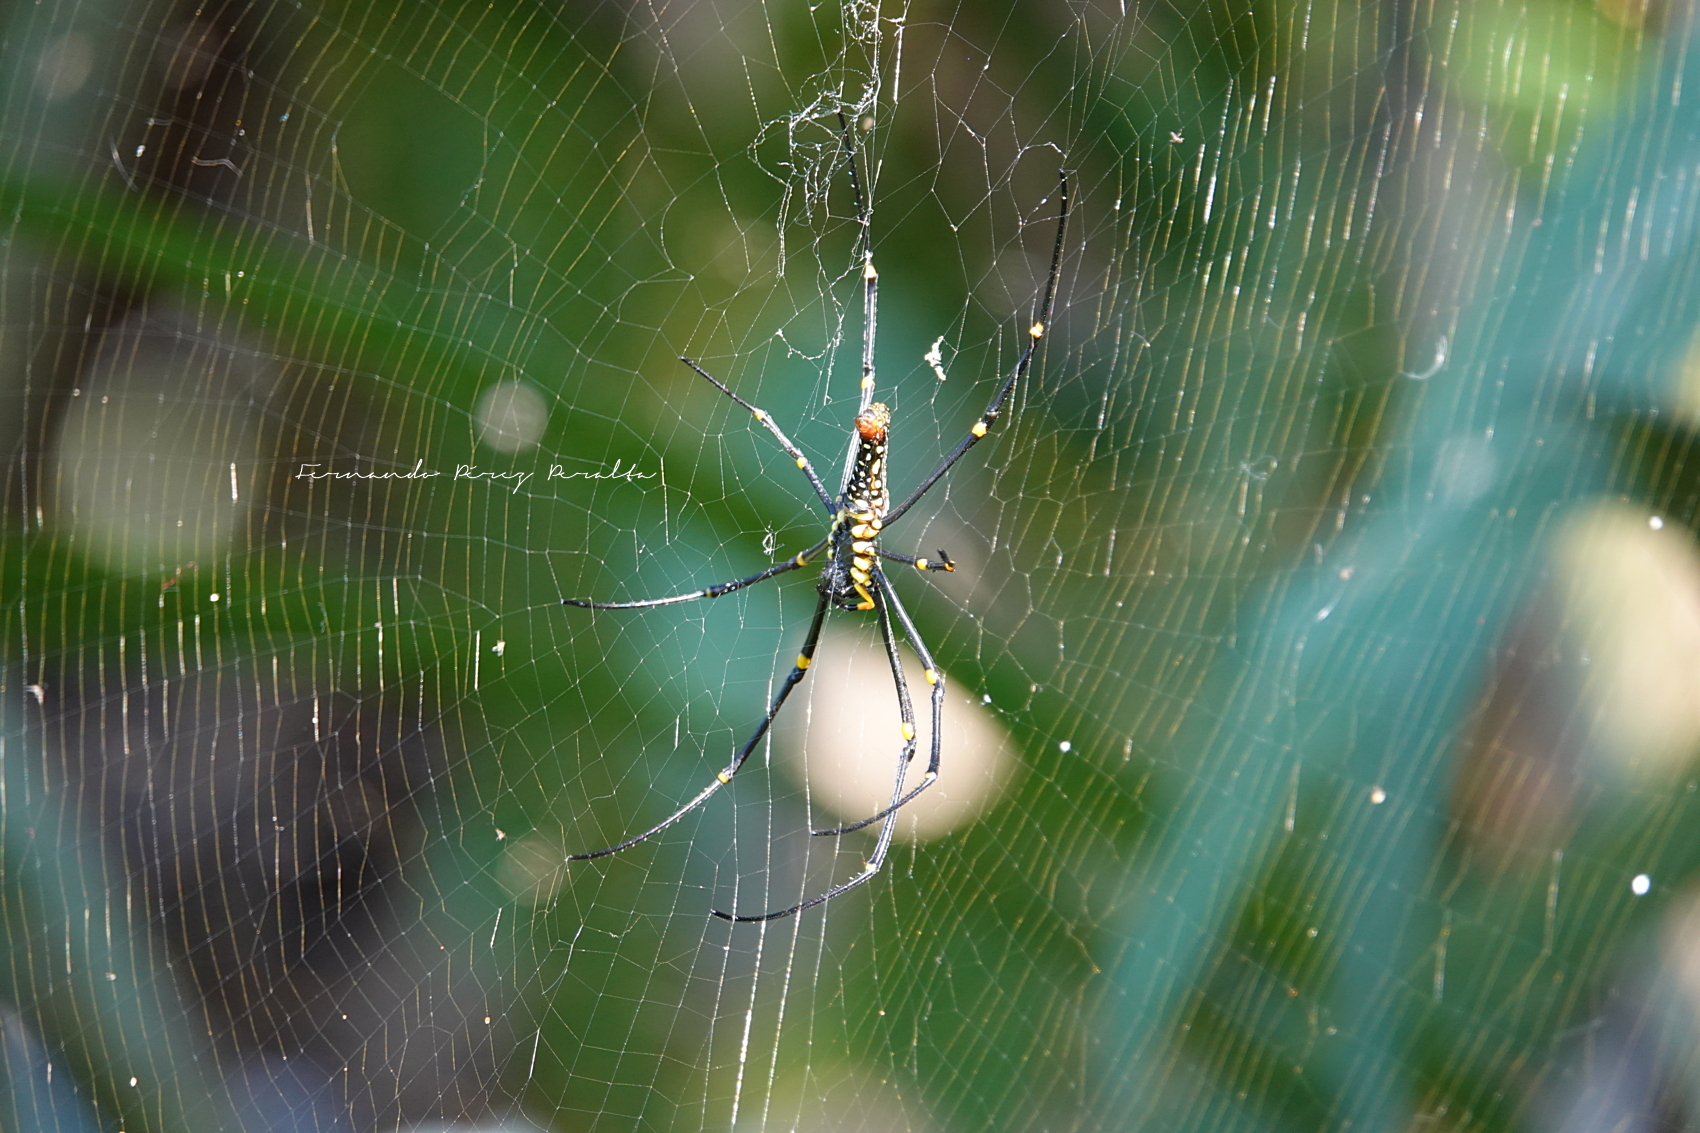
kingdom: Animalia
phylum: Arthropoda
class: Arachnida
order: Araneae
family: Araneidae
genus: Nephila
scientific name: Nephila pilipes
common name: Giant golden orb weaver
